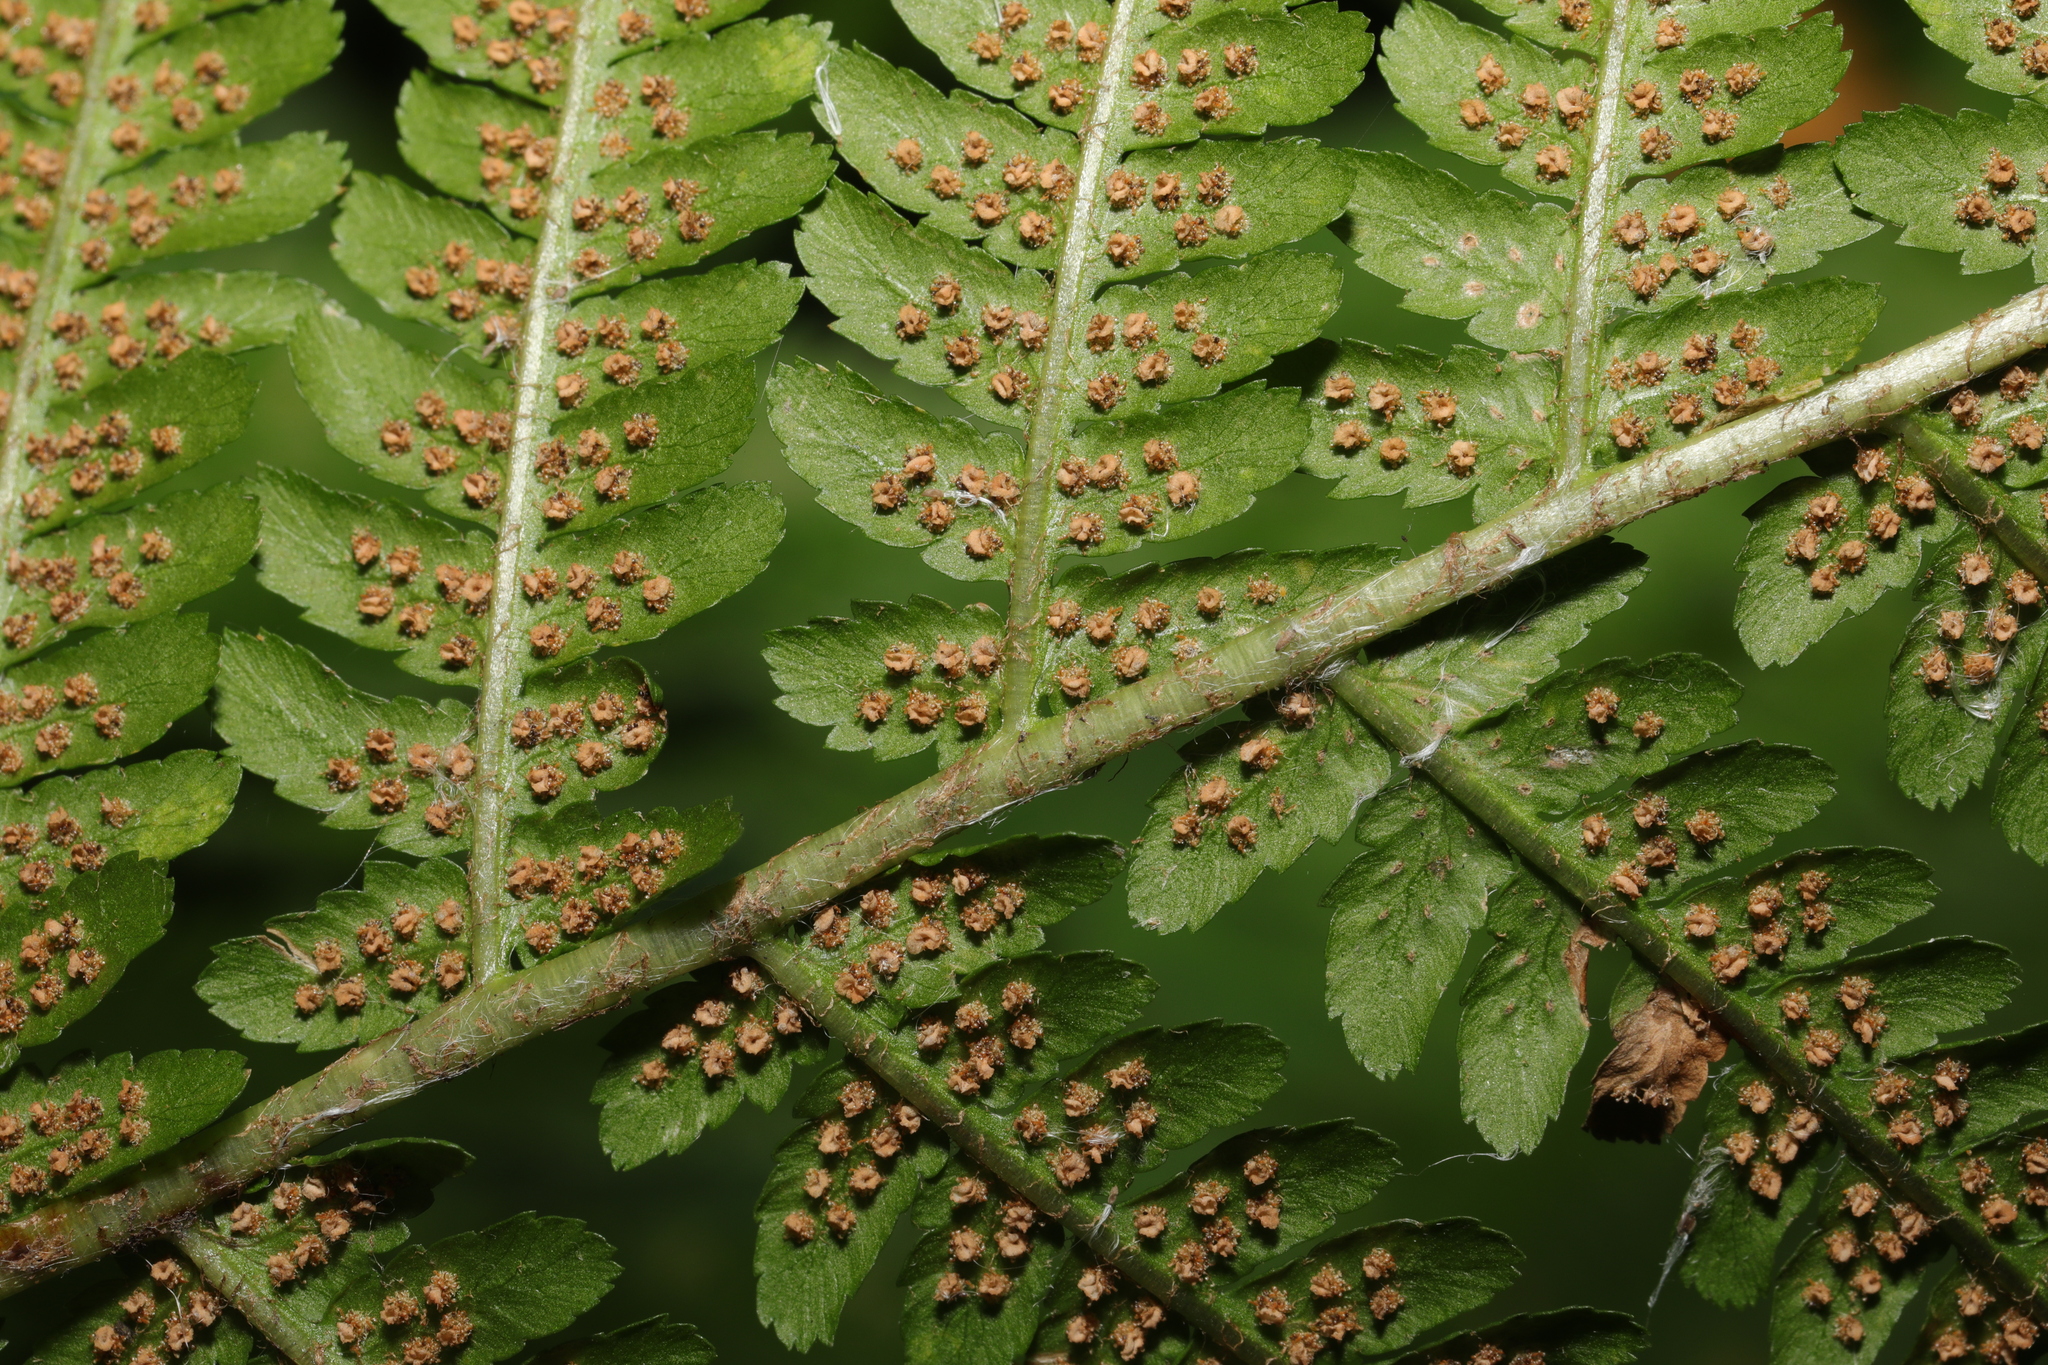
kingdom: Plantae
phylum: Tracheophyta
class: Polypodiopsida
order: Polypodiales
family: Dryopteridaceae
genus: Dryopteris
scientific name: Dryopteris filix-mas
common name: Male fern
